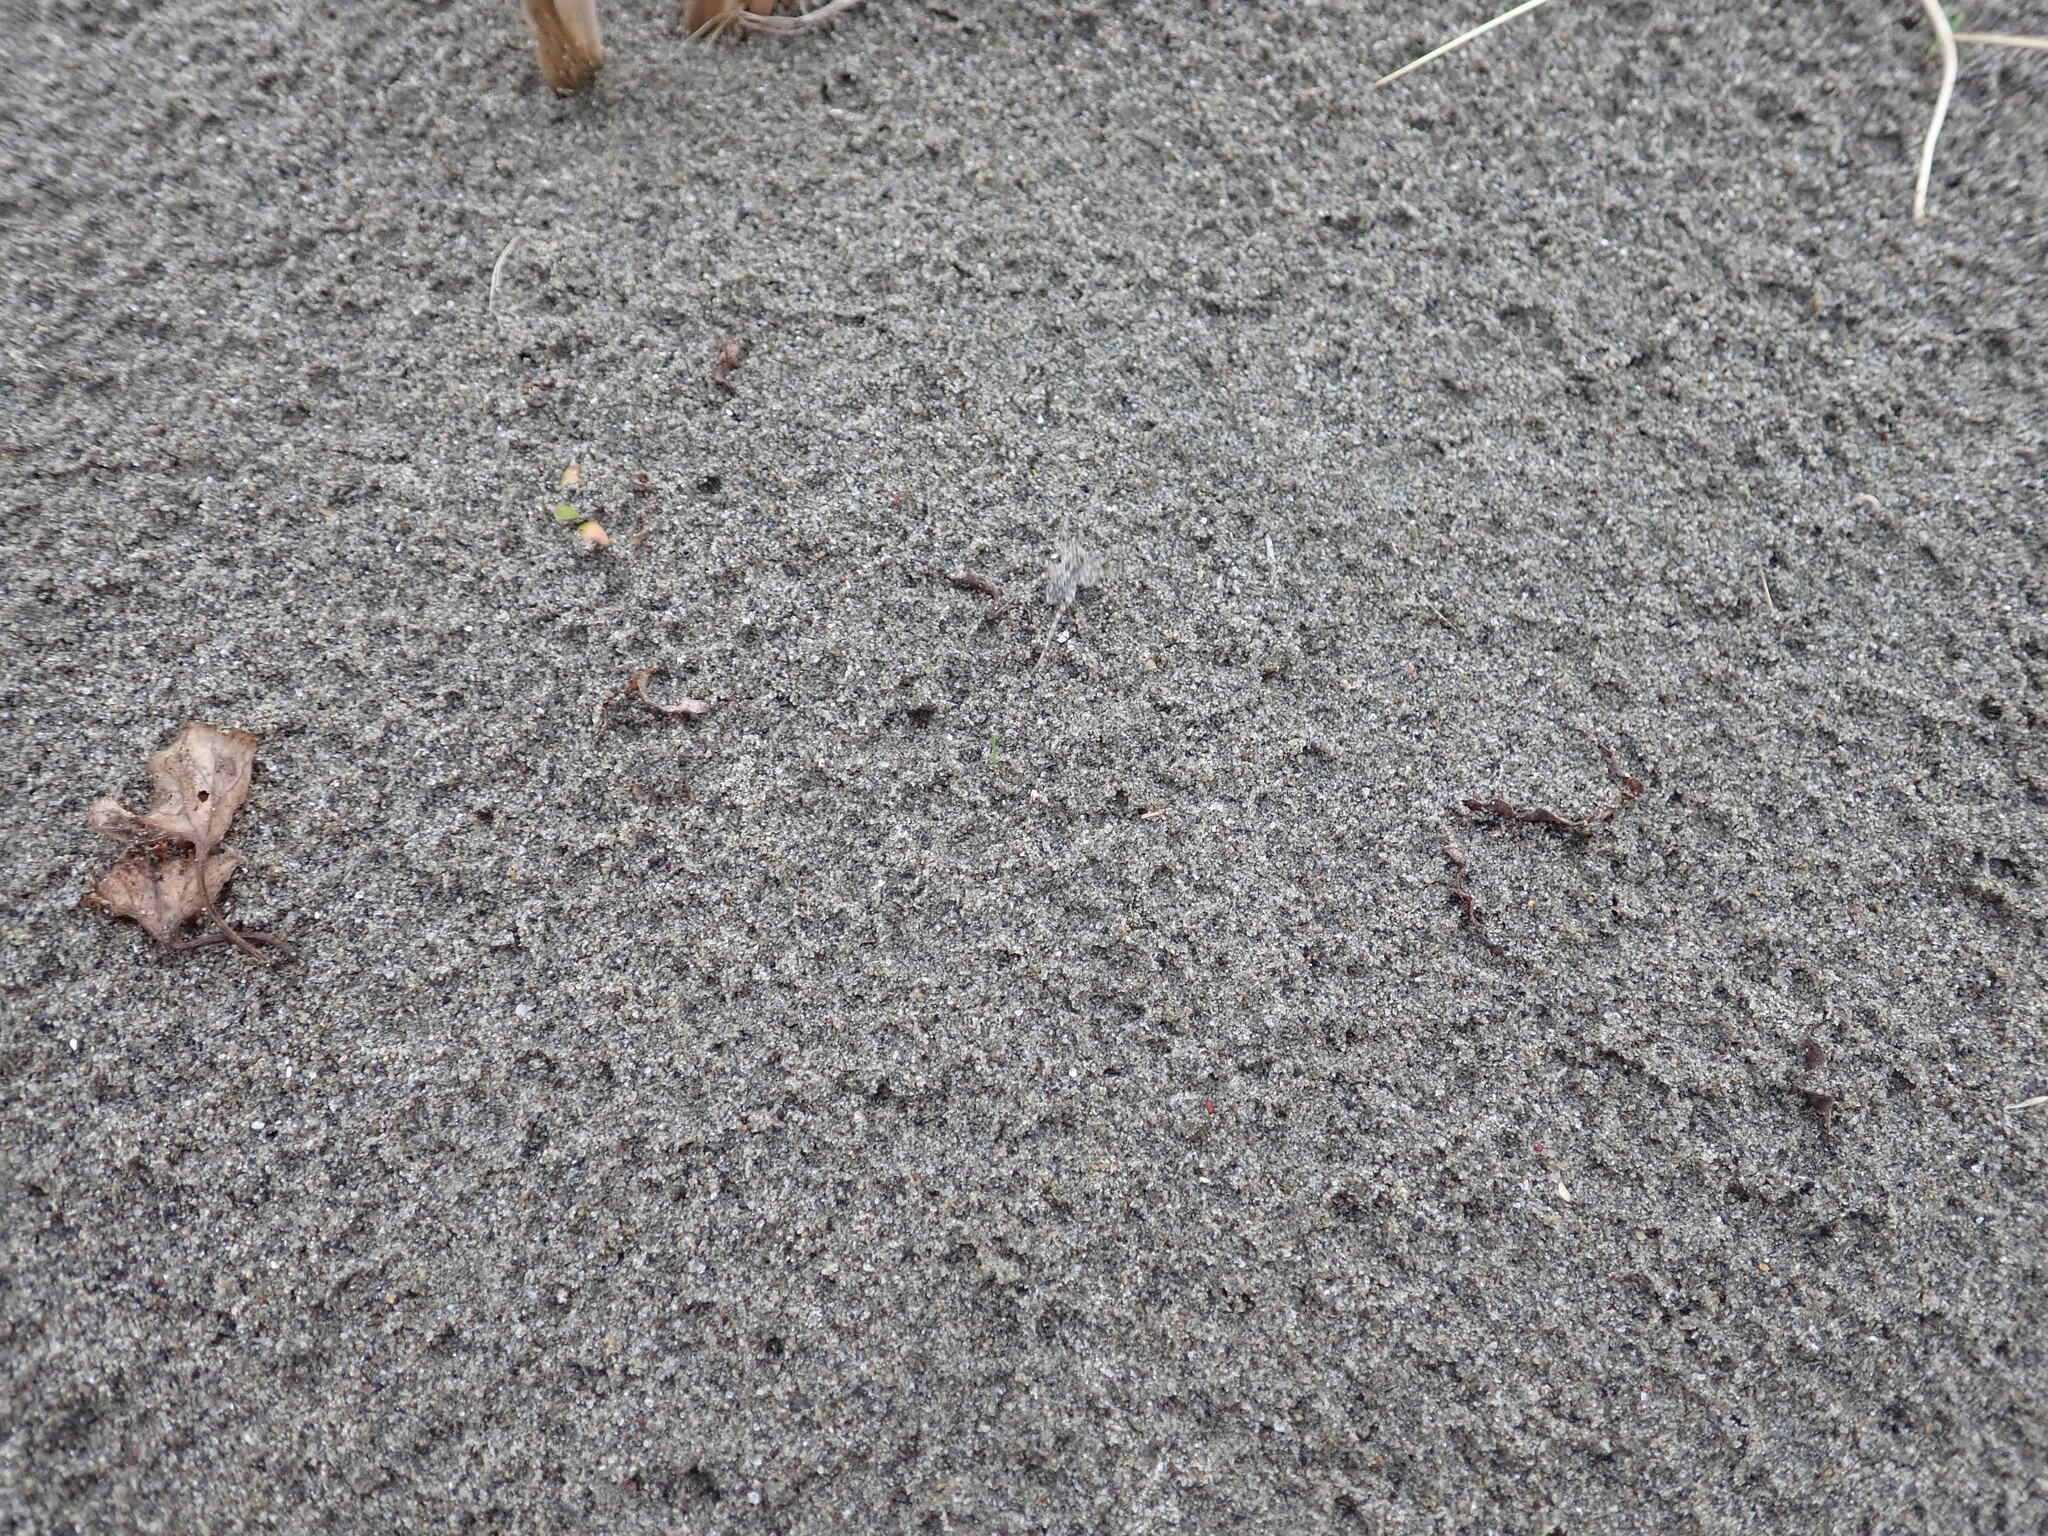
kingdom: Animalia
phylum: Arthropoda
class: Arachnida
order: Araneae
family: Lycosidae
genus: Anoteropsis
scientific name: Anoteropsis litoralis
